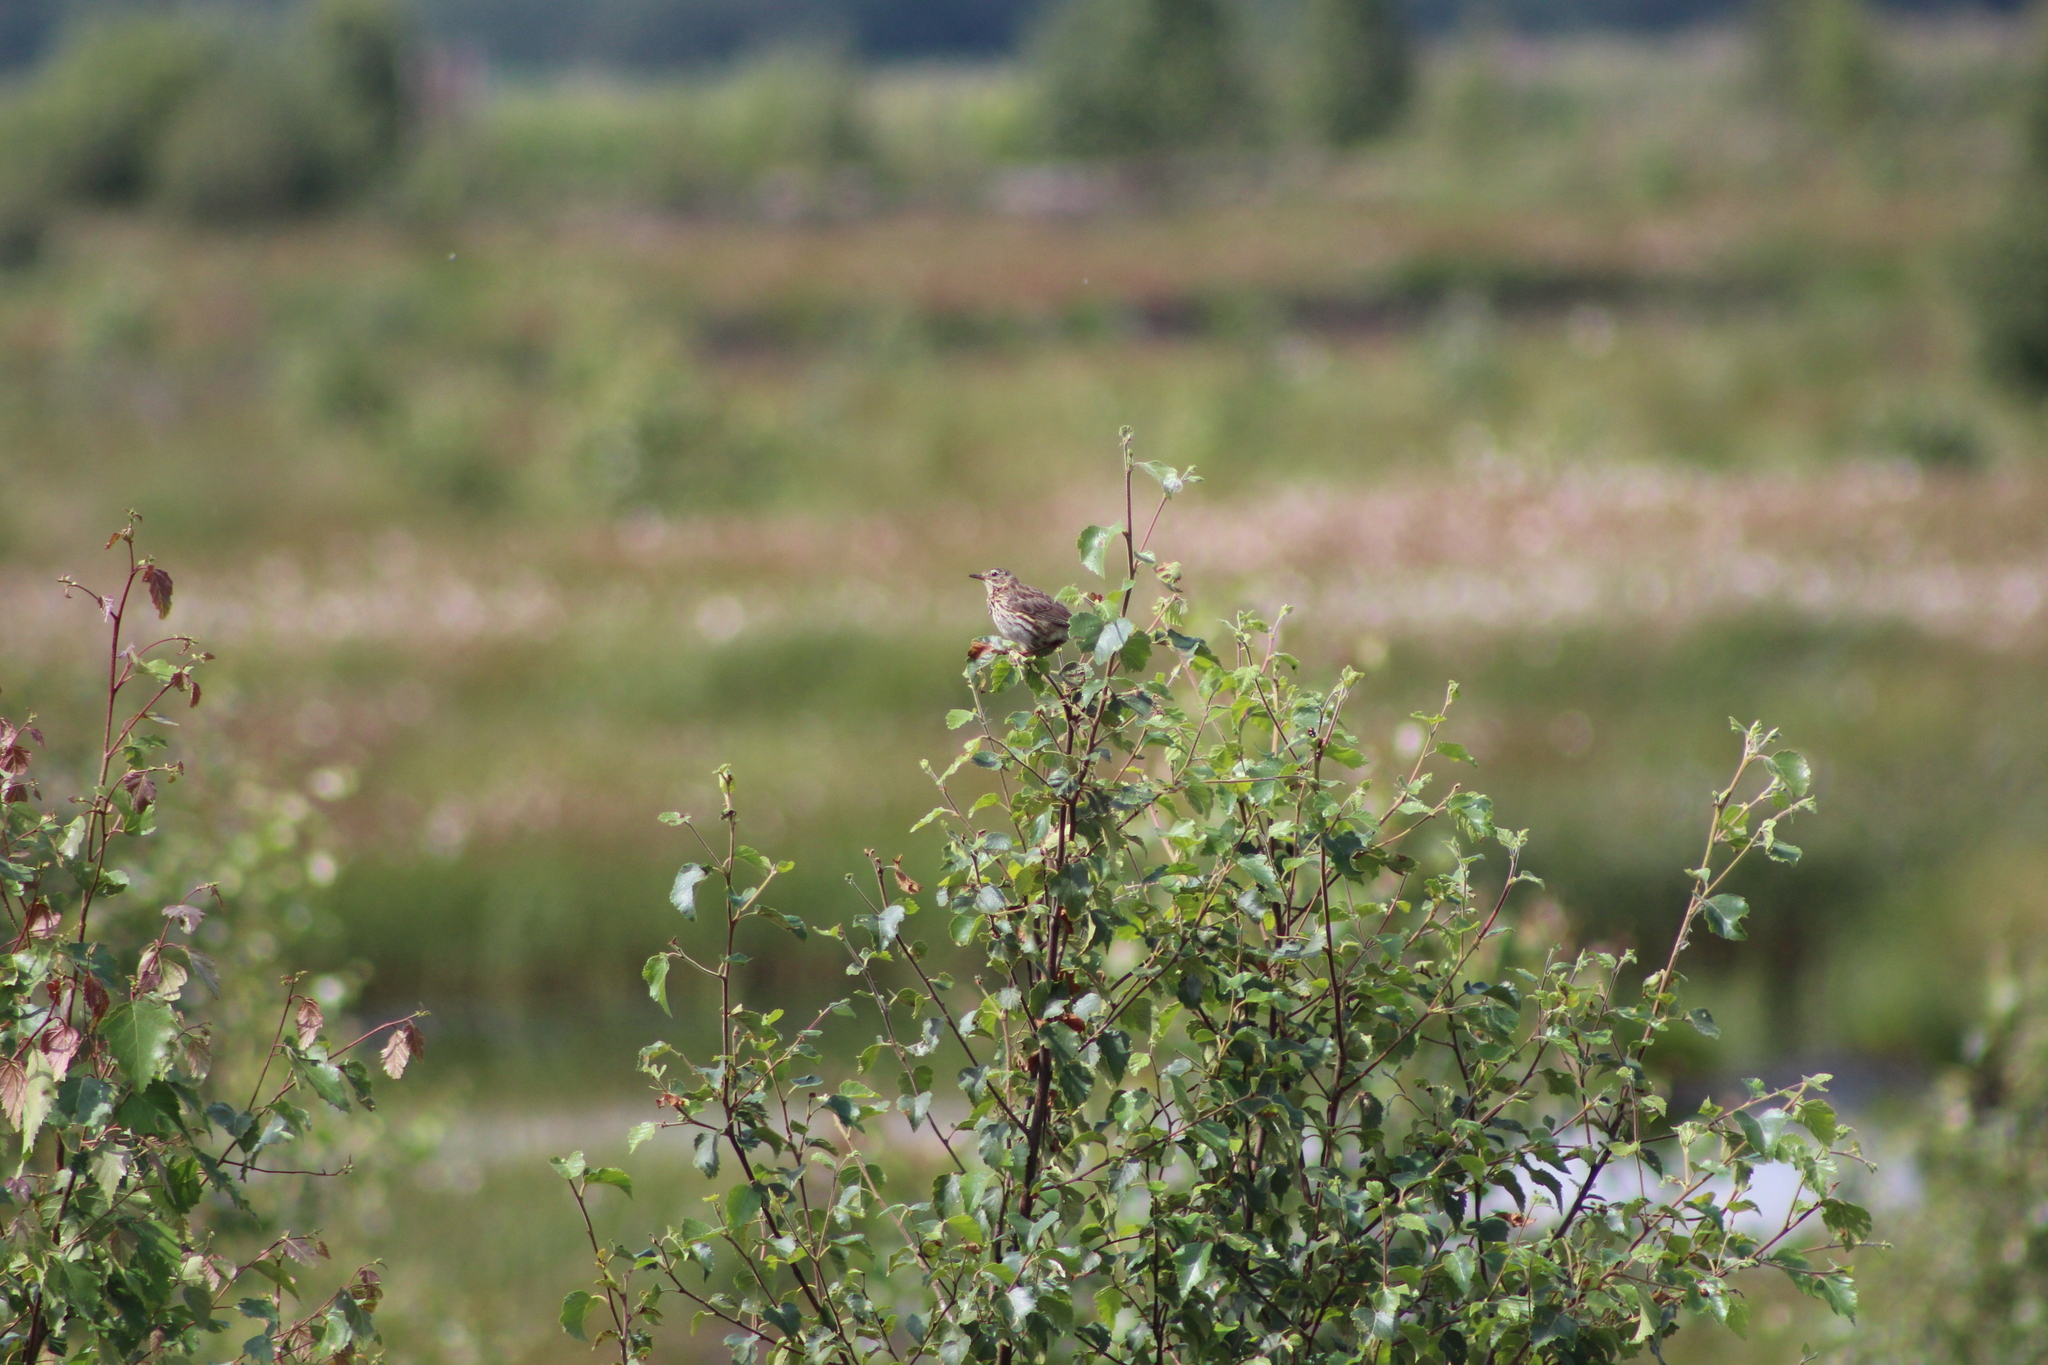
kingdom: Animalia
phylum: Chordata
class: Aves
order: Passeriformes
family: Motacillidae
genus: Anthus
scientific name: Anthus pratensis
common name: Meadow pipit
